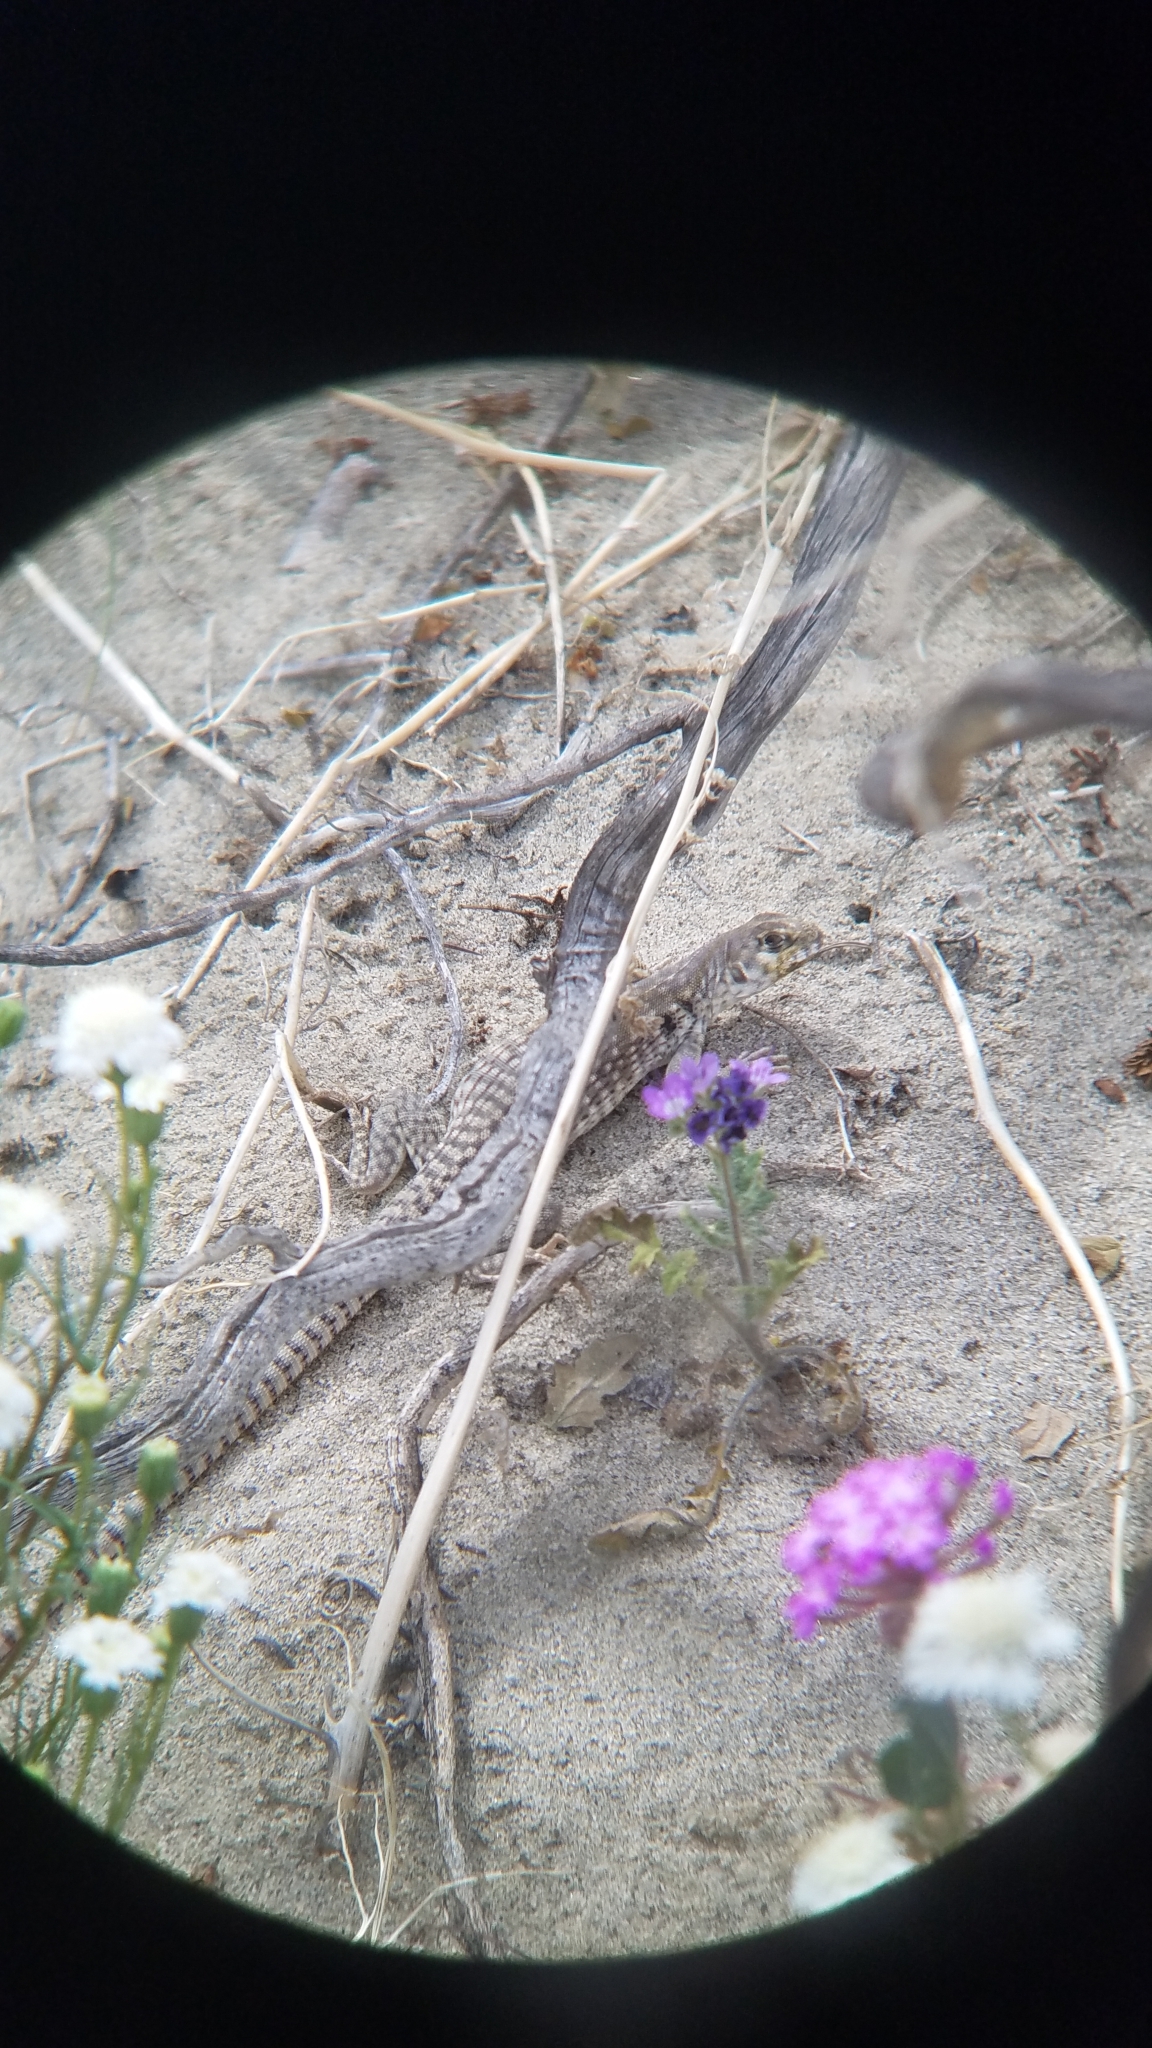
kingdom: Animalia
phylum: Chordata
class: Squamata
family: Iguanidae
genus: Dipsosaurus
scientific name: Dipsosaurus dorsalis
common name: Desert iguana
